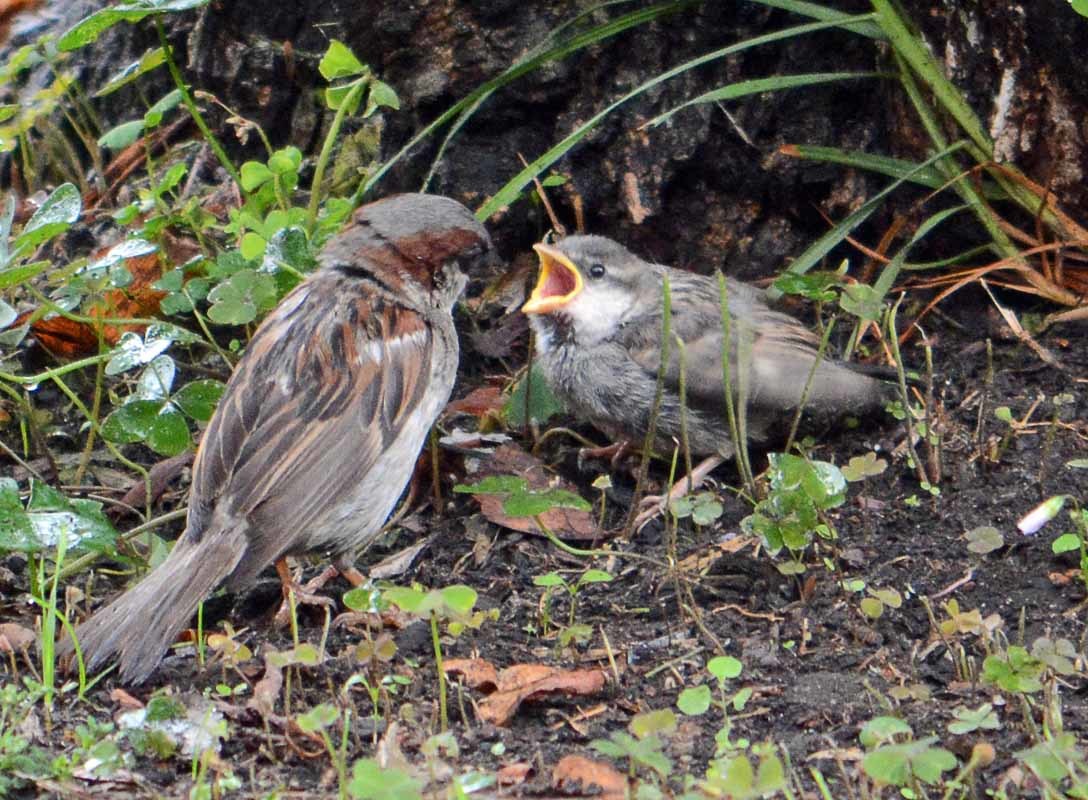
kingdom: Animalia
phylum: Chordata
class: Aves
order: Passeriformes
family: Passeridae
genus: Passer
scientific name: Passer domesticus
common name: House sparrow
